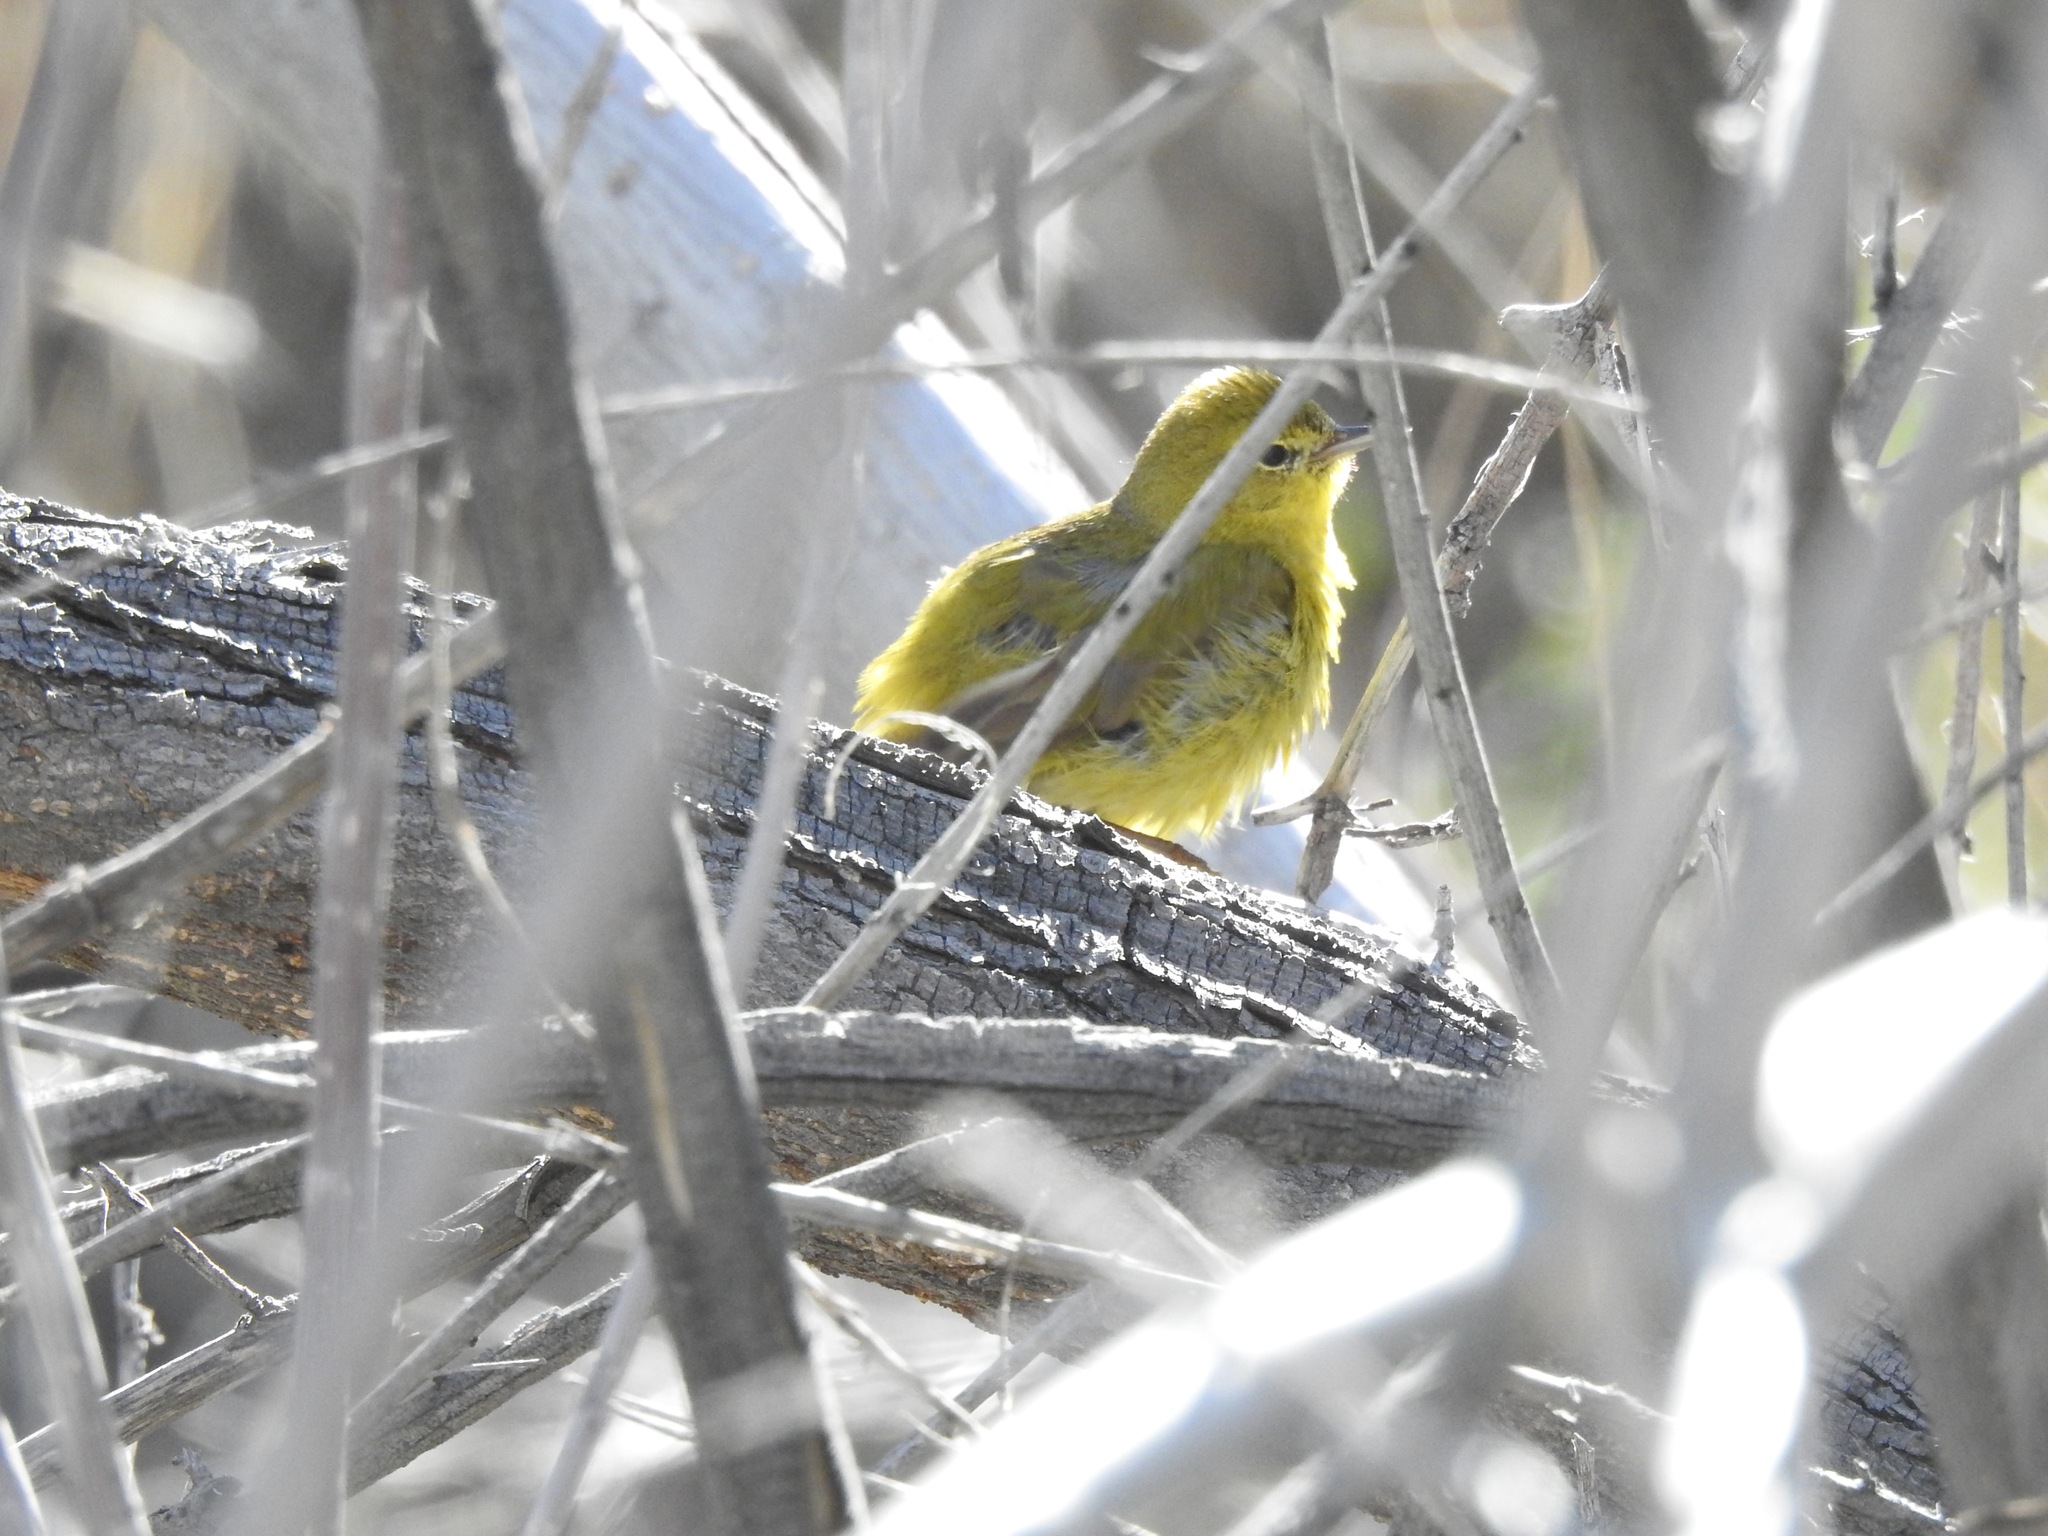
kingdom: Animalia
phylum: Chordata
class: Aves
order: Passeriformes
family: Parulidae
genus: Leiothlypis
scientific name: Leiothlypis celata
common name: Orange-crowned warbler
